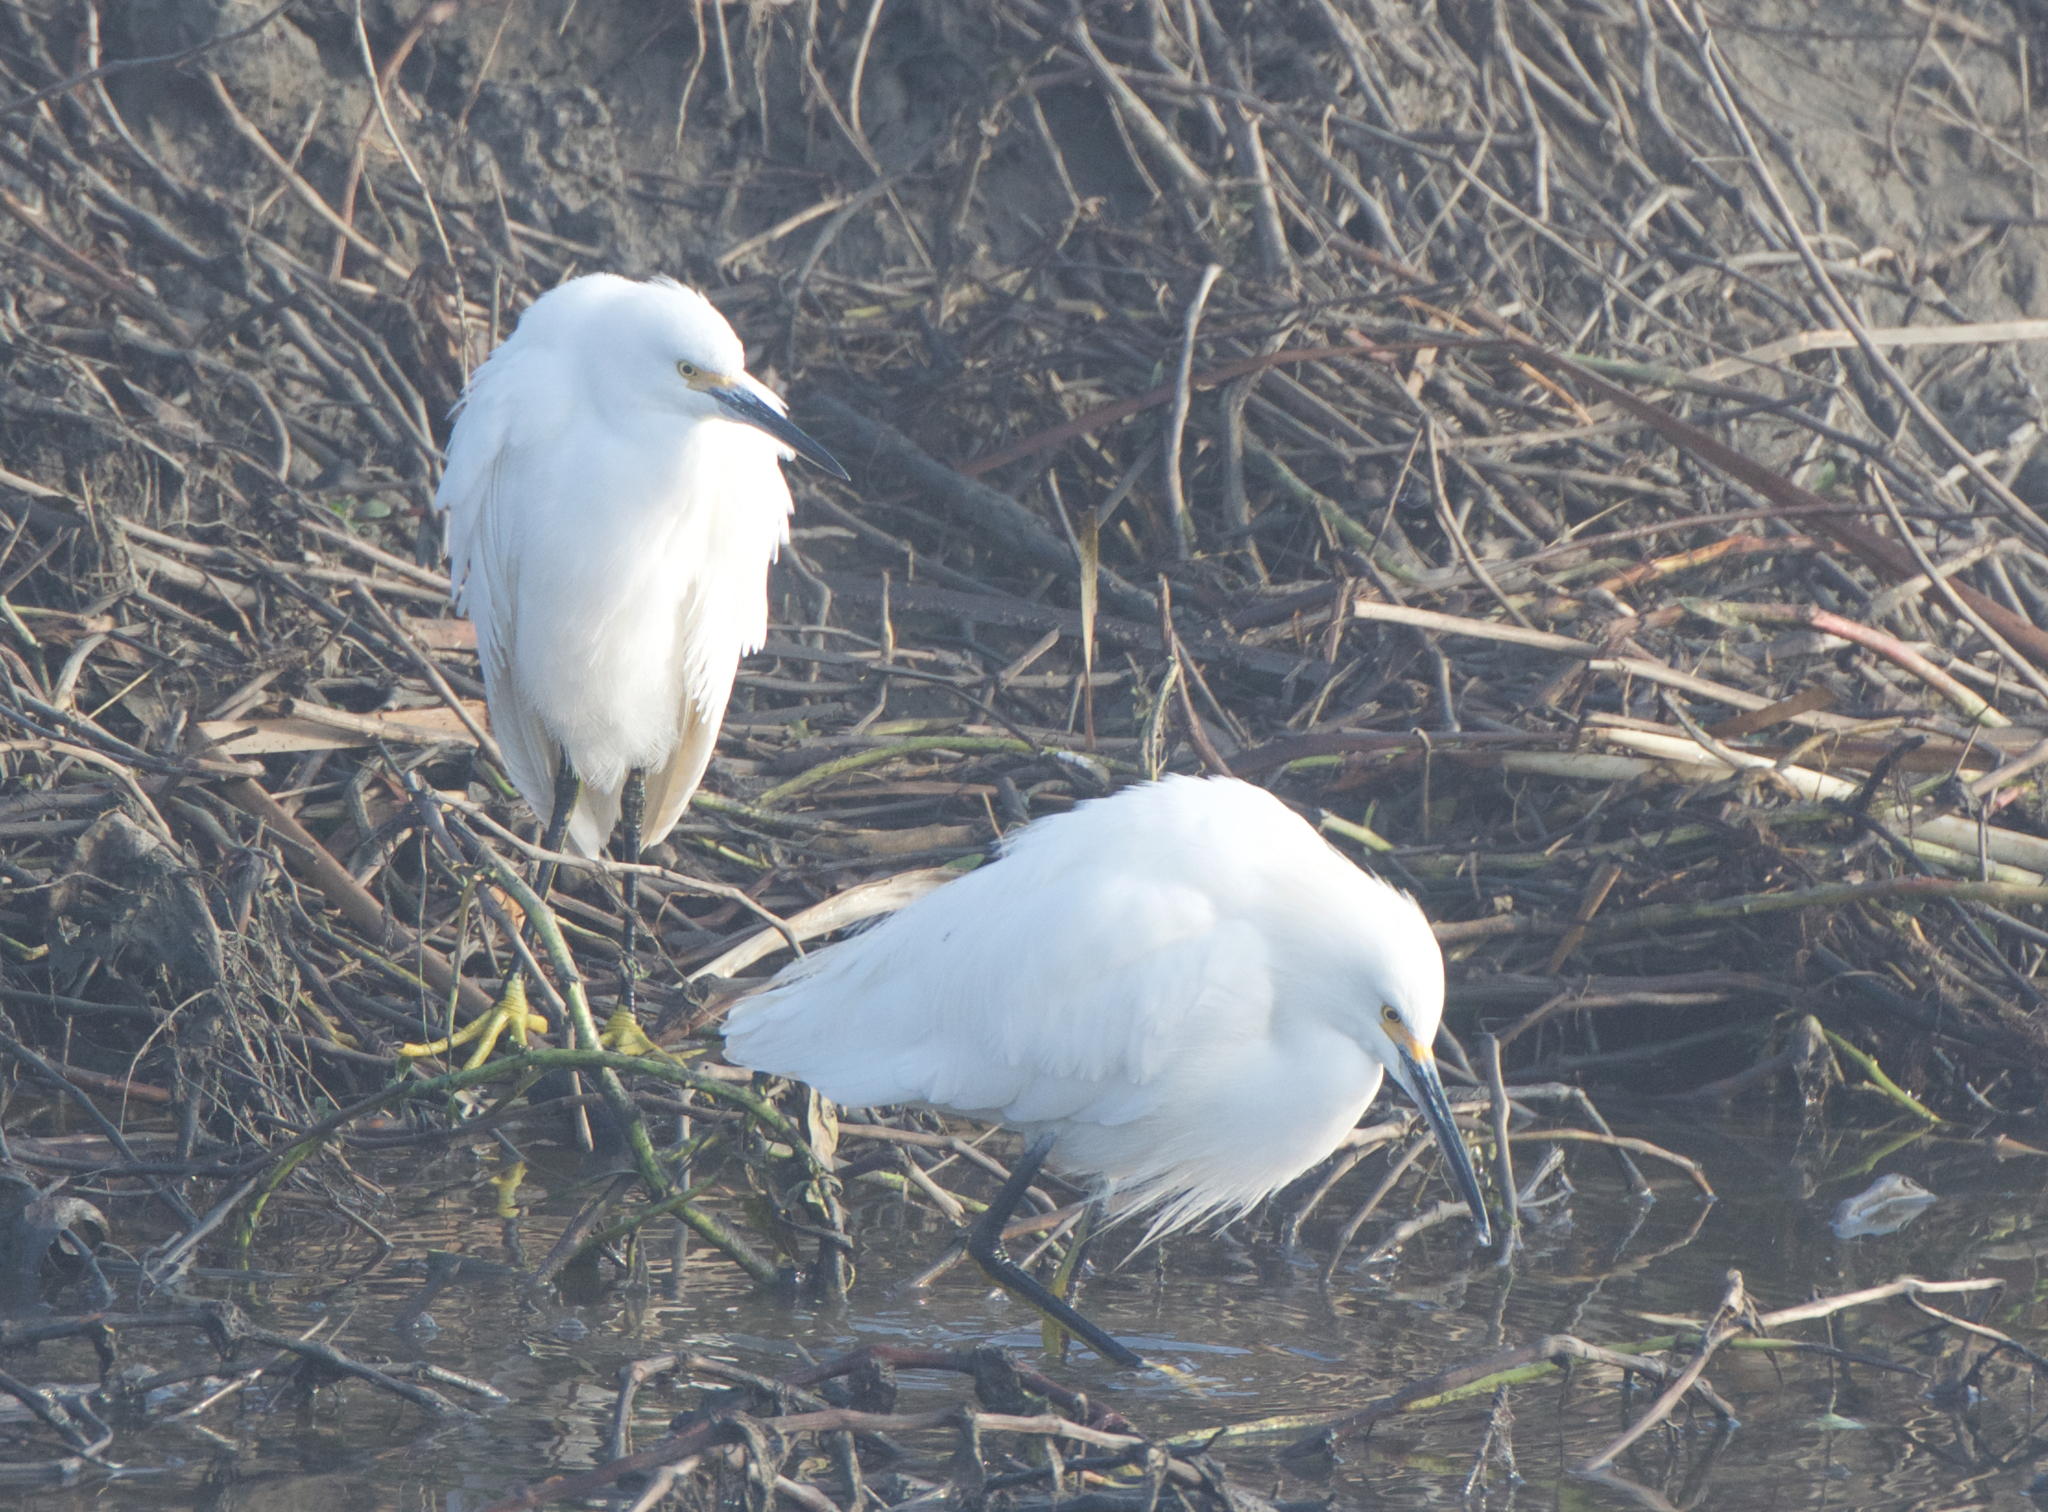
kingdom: Animalia
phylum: Chordata
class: Aves
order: Pelecaniformes
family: Ardeidae
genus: Egretta
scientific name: Egretta thula
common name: Snowy egret
